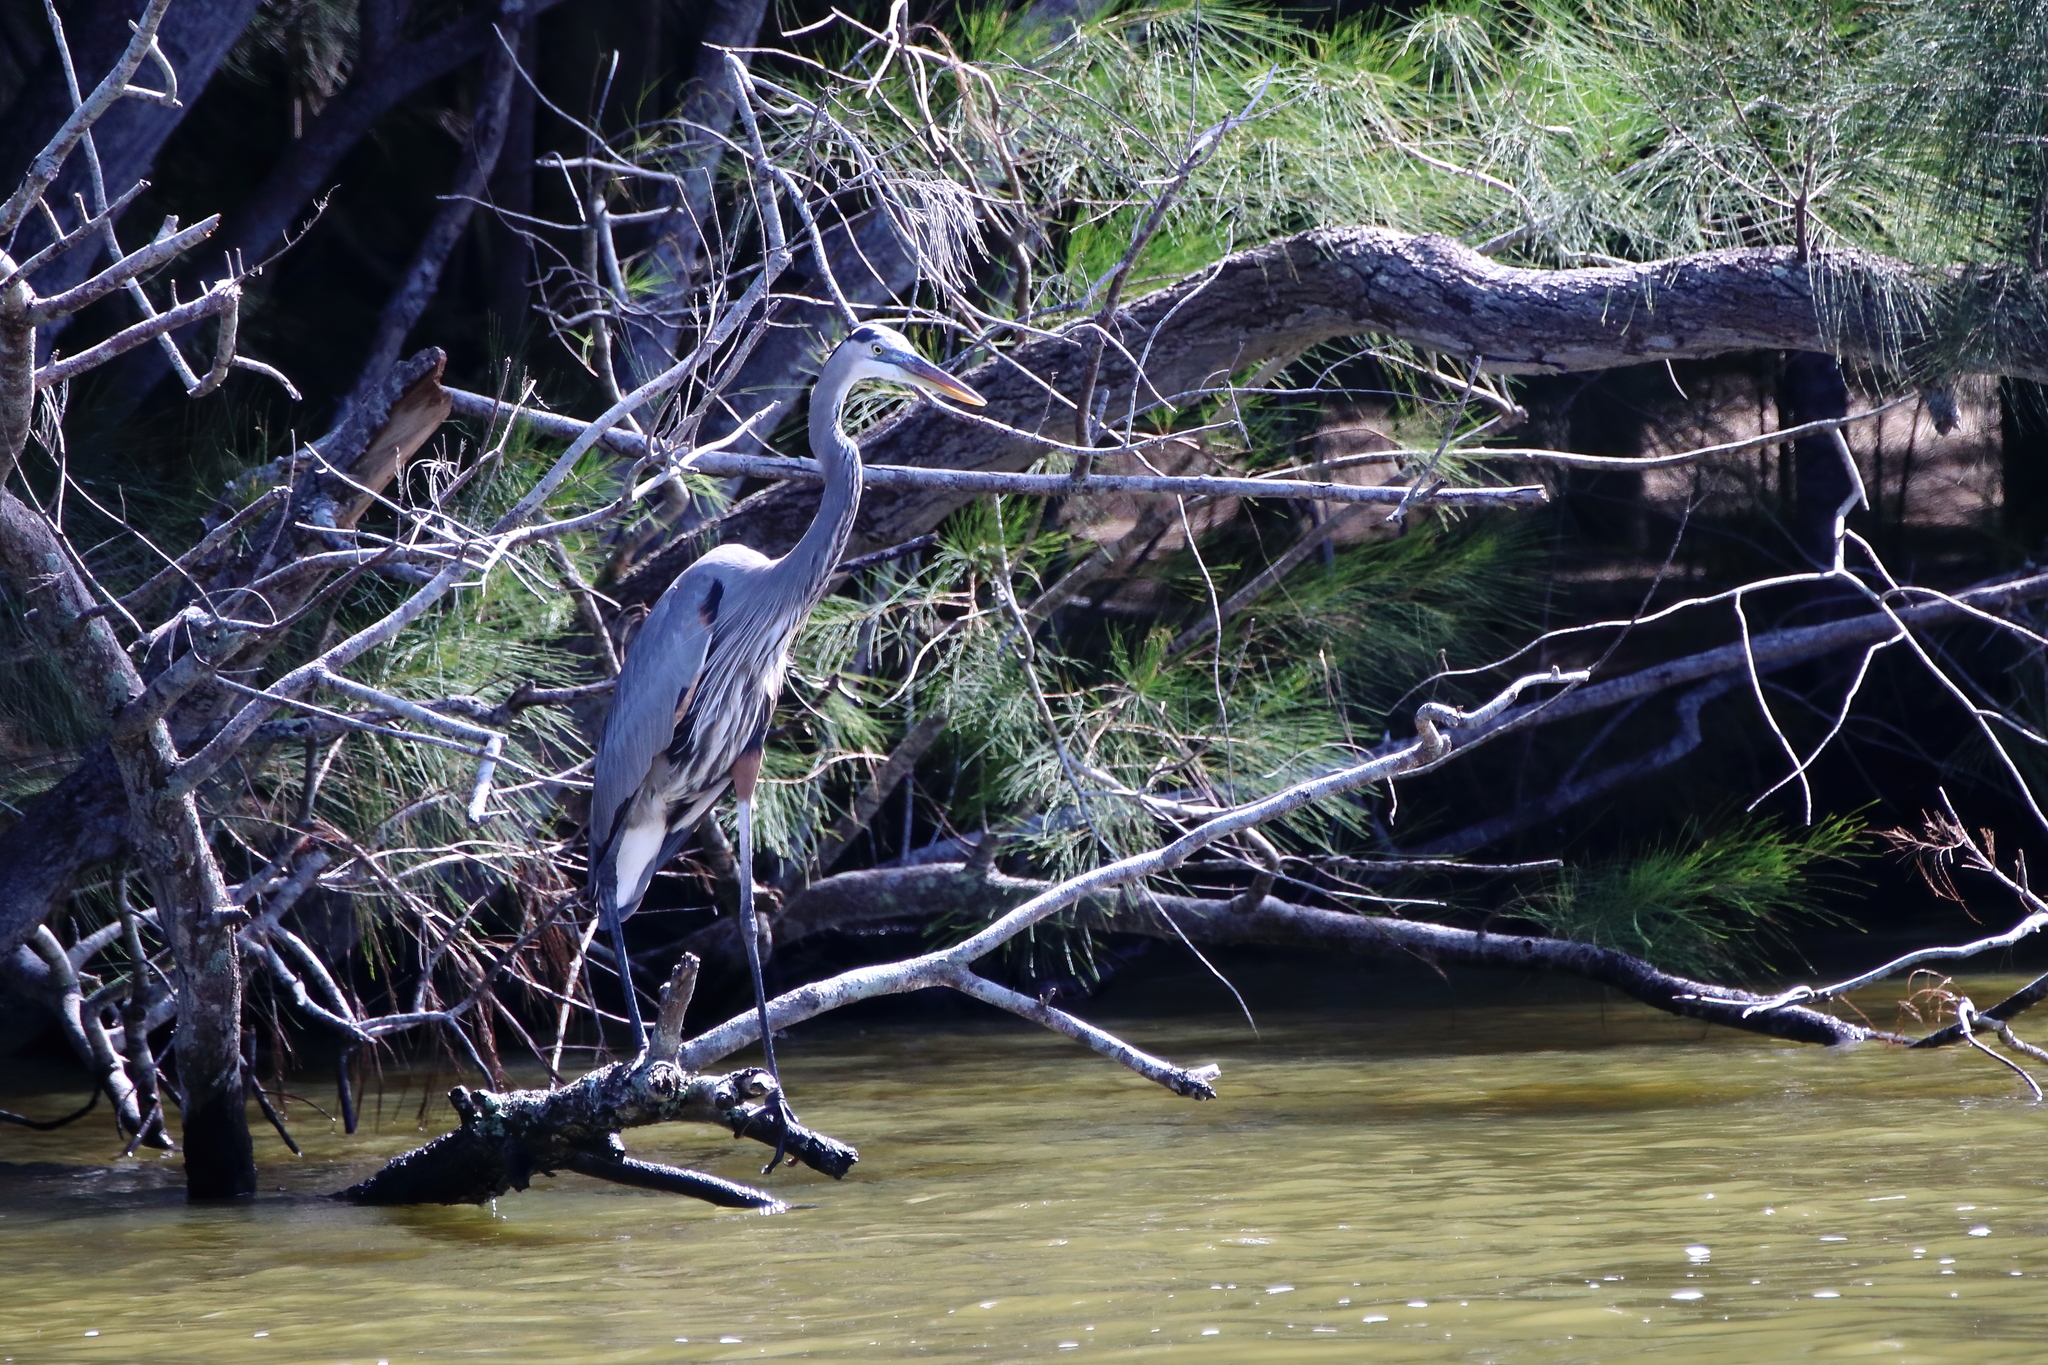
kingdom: Animalia
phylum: Chordata
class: Aves
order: Pelecaniformes
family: Ardeidae
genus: Ardea
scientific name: Ardea herodias
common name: Great blue heron
